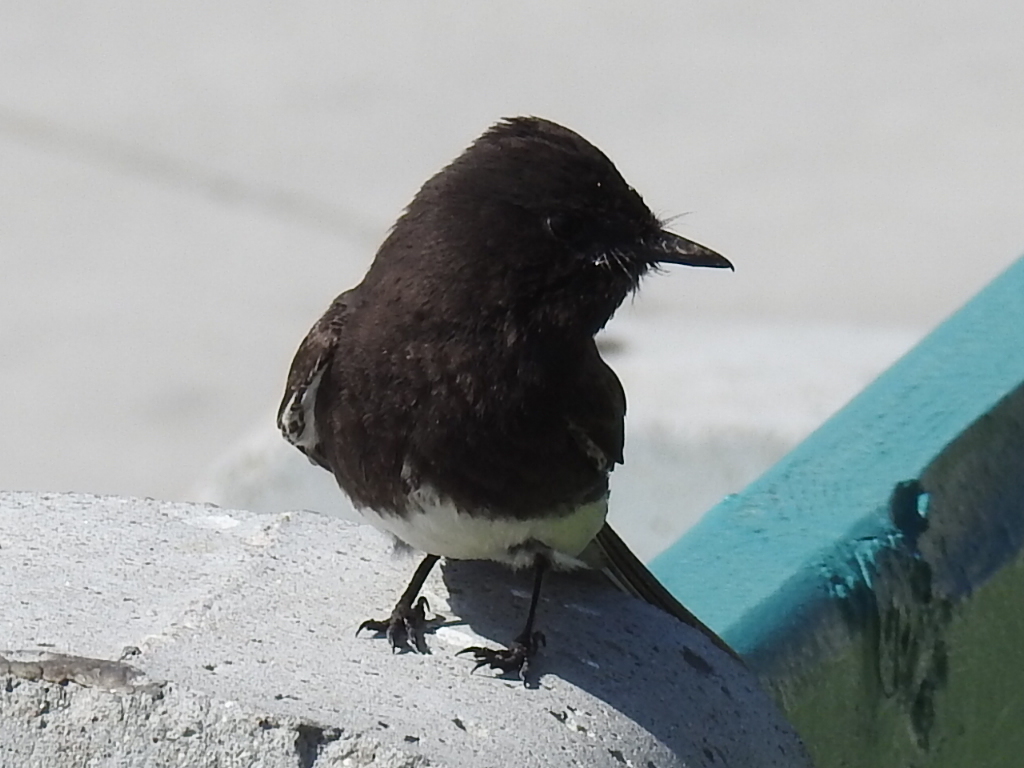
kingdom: Animalia
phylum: Chordata
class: Aves
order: Passeriformes
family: Tyrannidae
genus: Sayornis
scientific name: Sayornis nigricans
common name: Black phoebe
